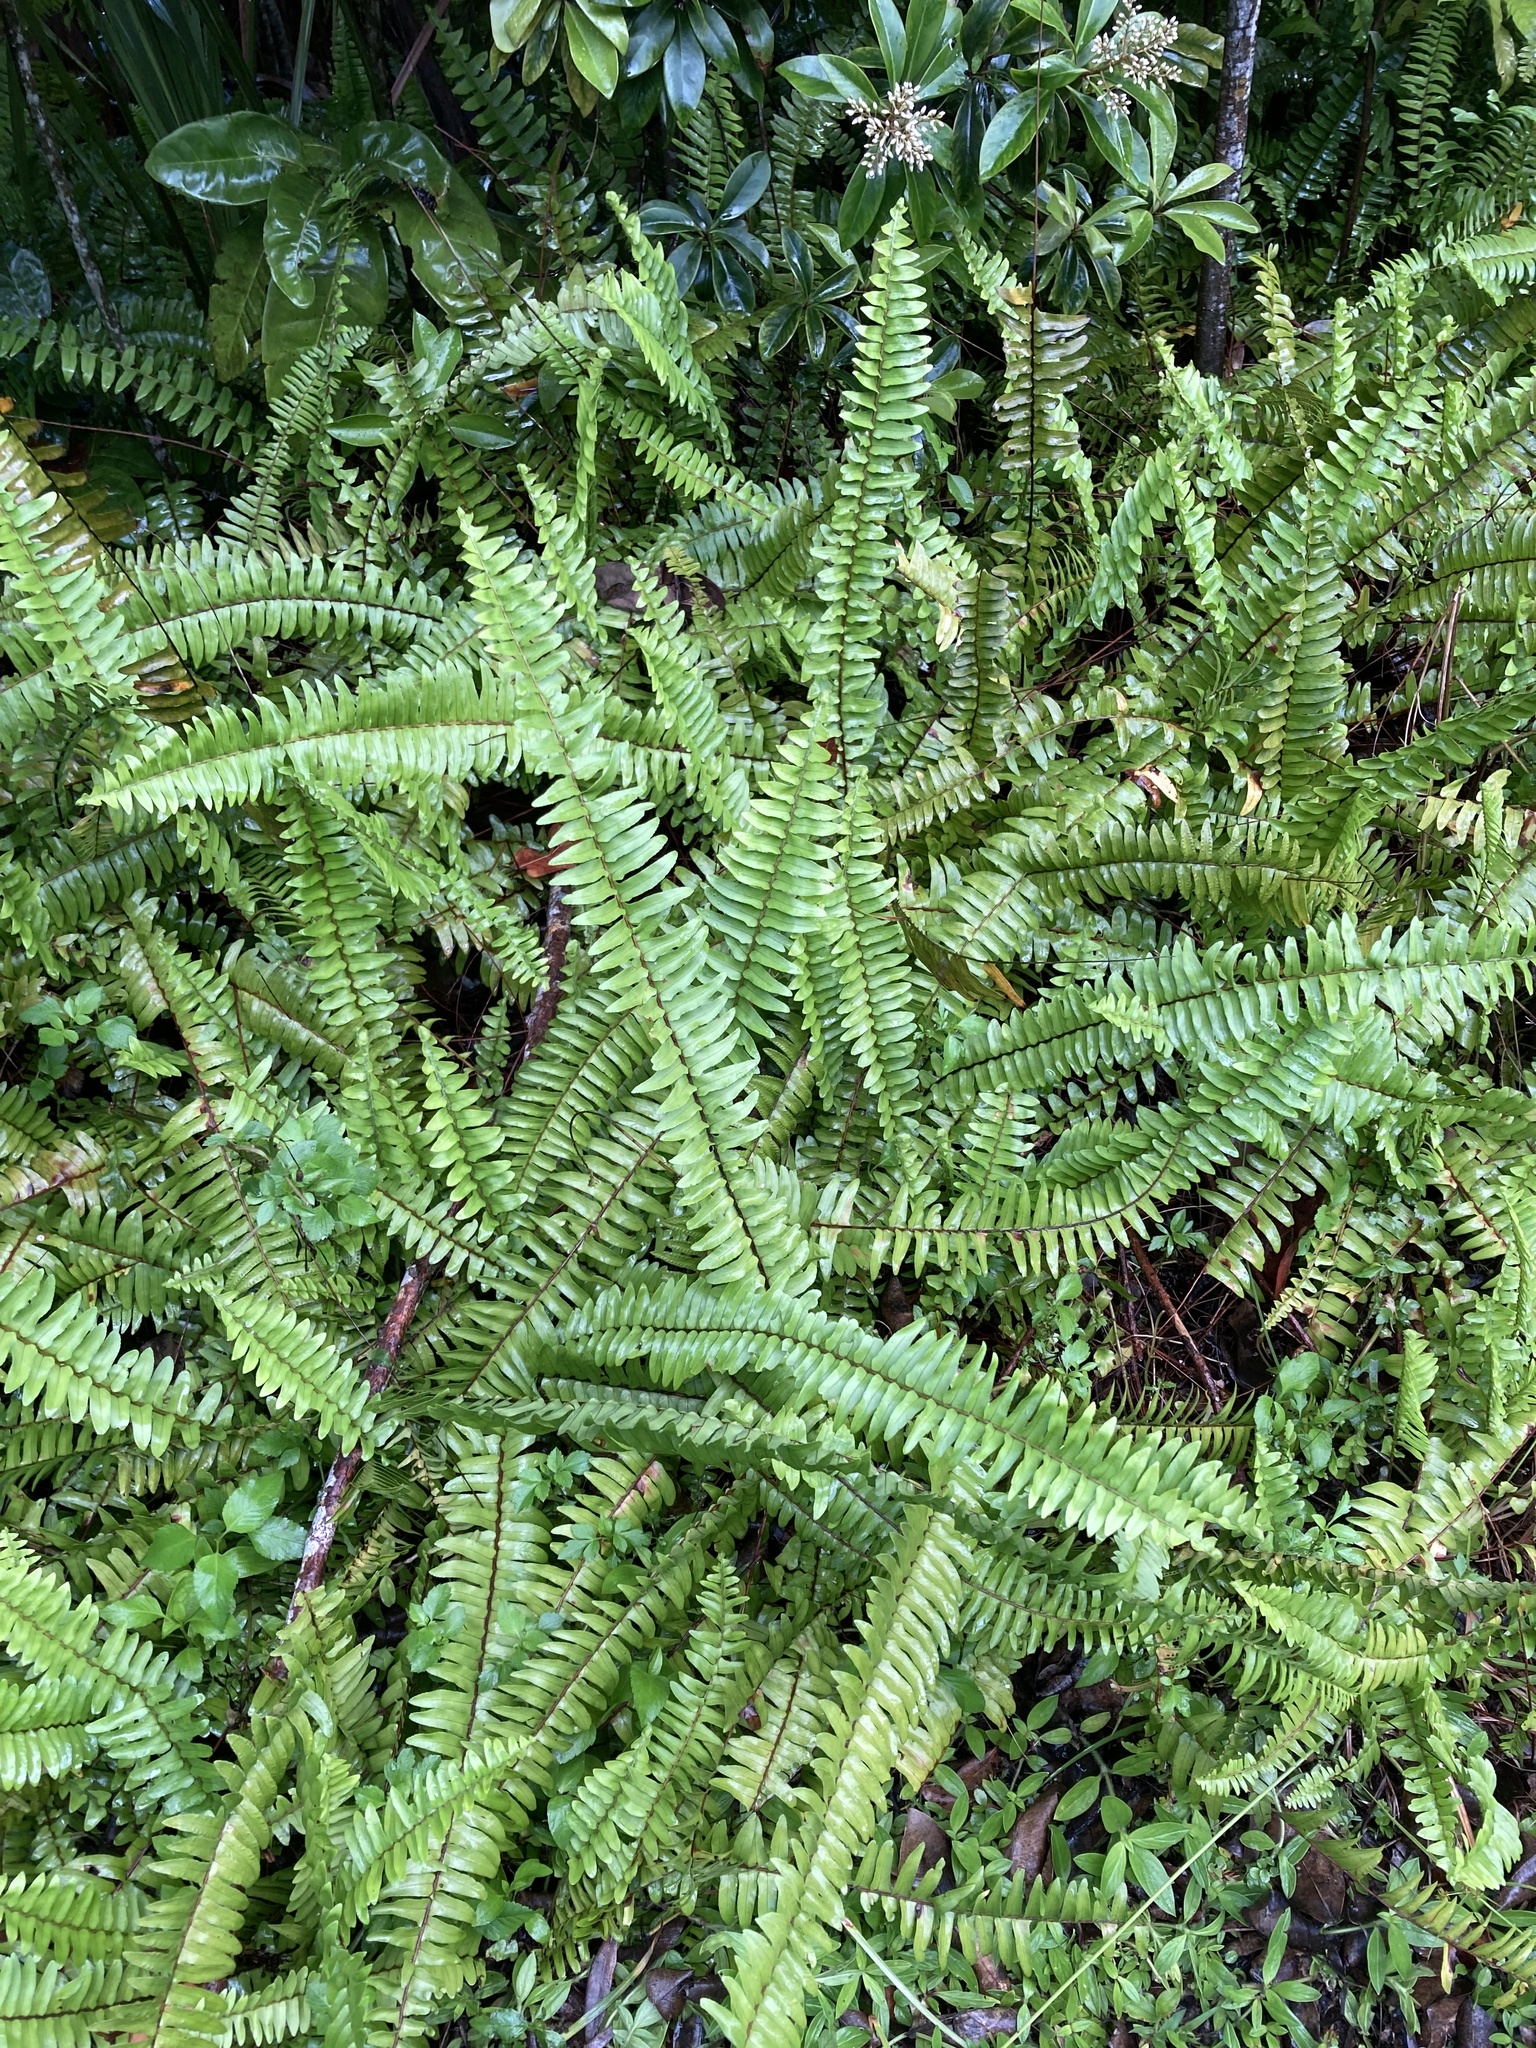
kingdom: Plantae
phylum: Tracheophyta
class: Polypodiopsida
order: Polypodiales
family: Nephrolepidaceae
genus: Nephrolepis
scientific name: Nephrolepis cordifolia
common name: Narrow swordfern
